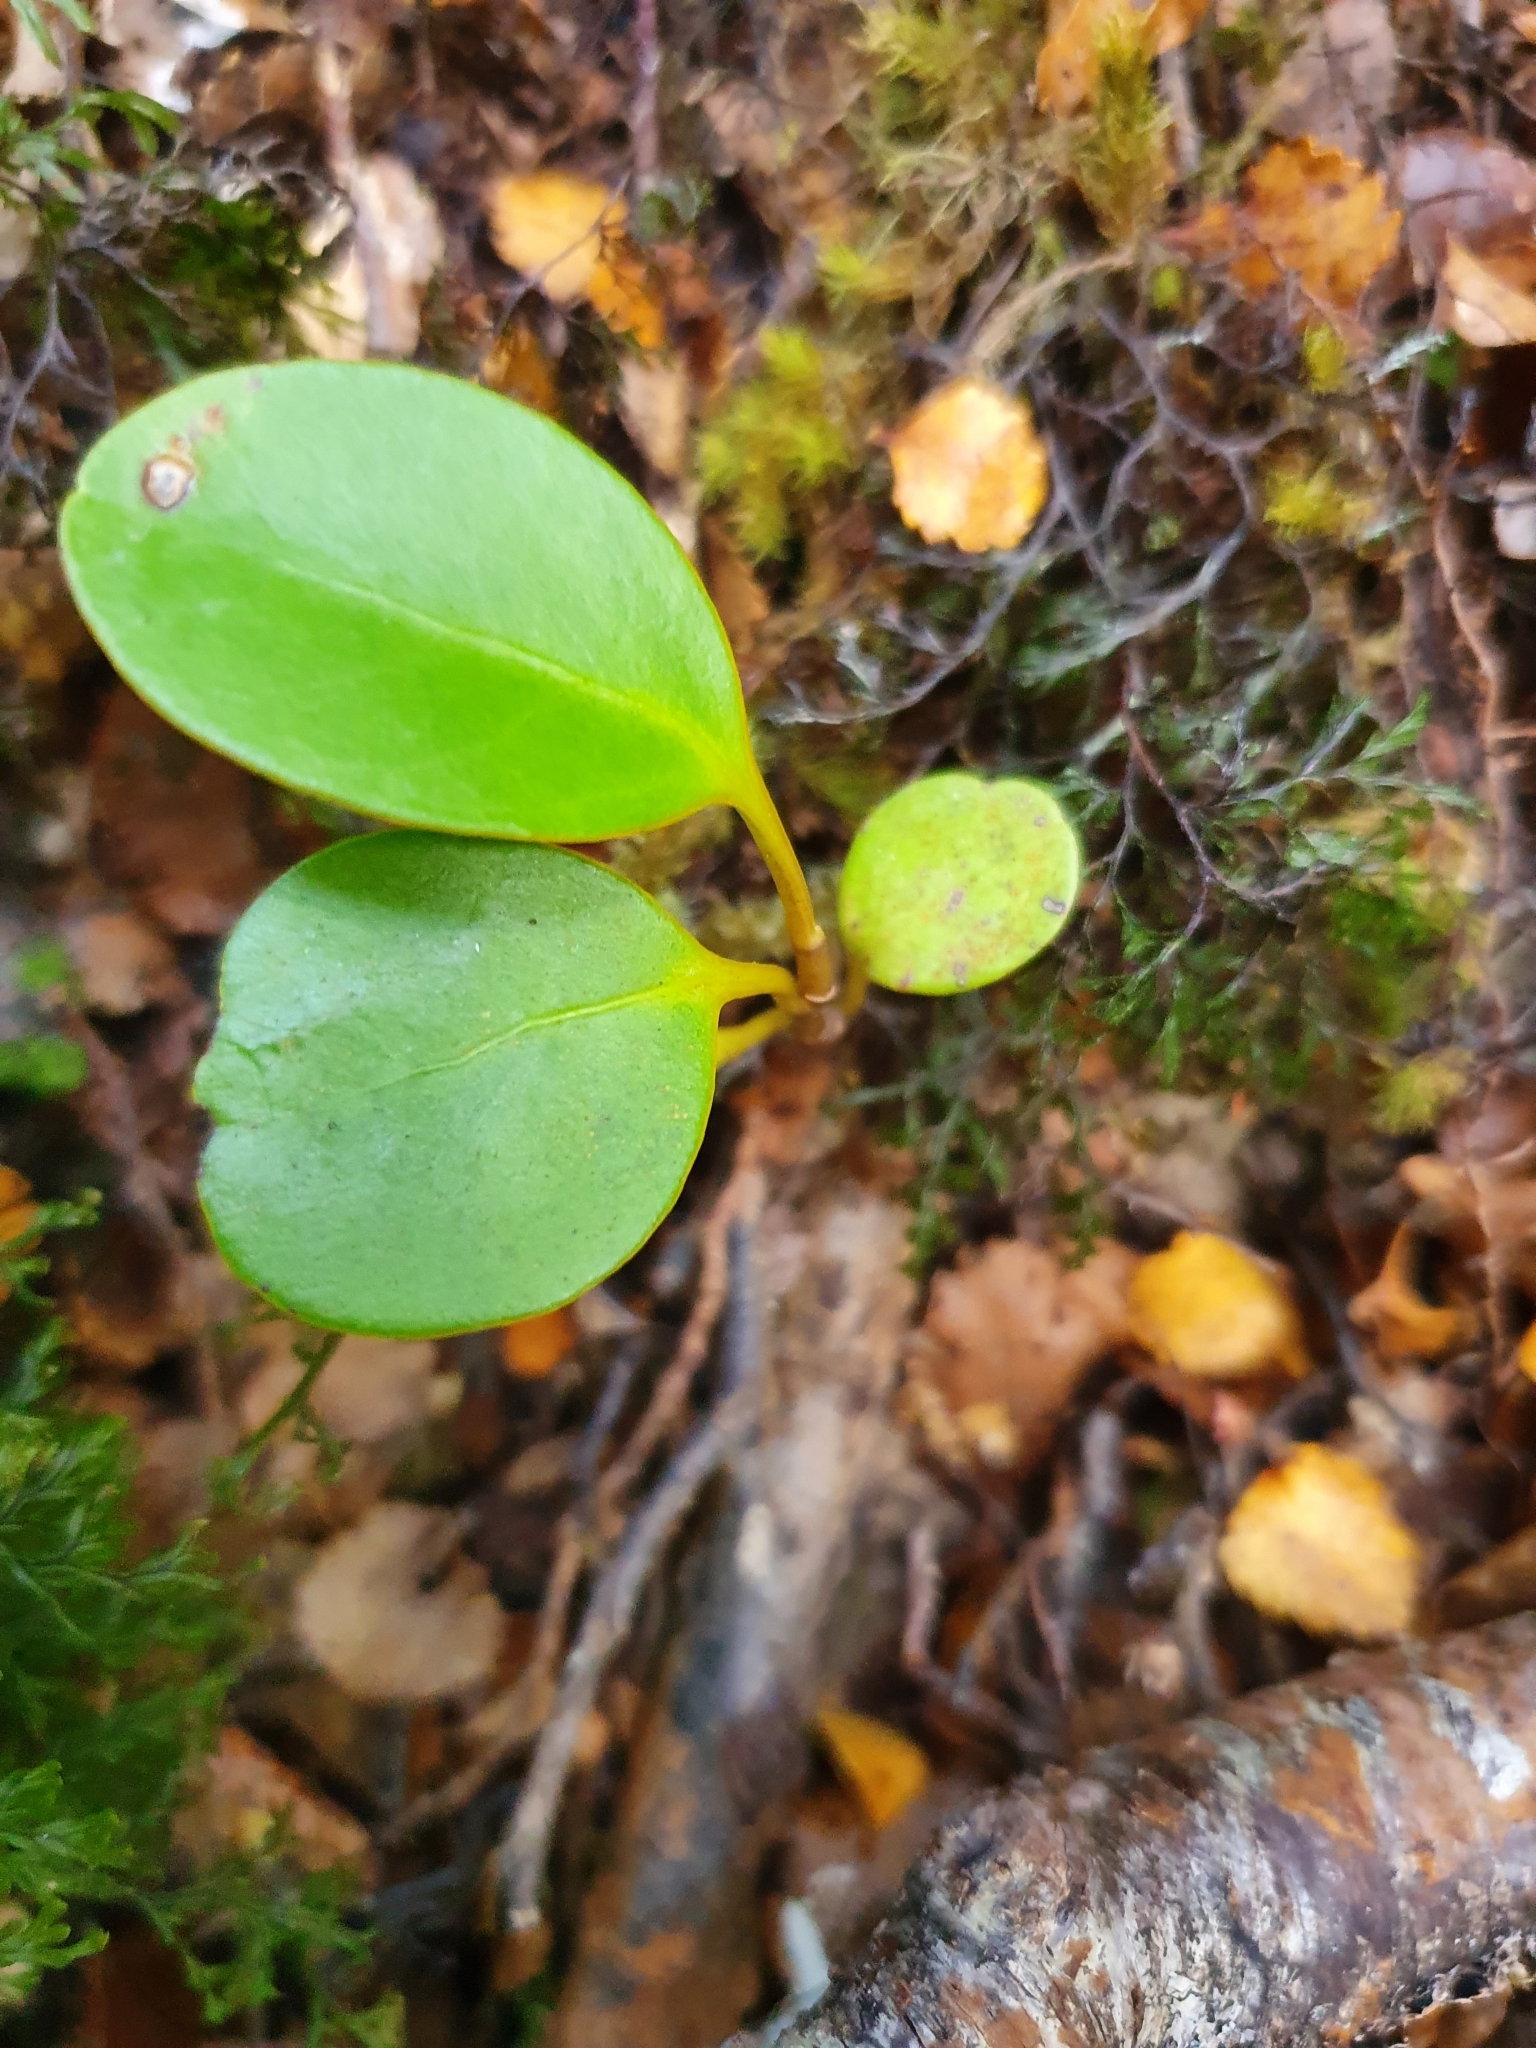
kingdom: Plantae
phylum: Tracheophyta
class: Magnoliopsida
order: Apiales
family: Griseliniaceae
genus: Griselinia
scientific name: Griselinia littoralis
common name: New zealand broadleaf
